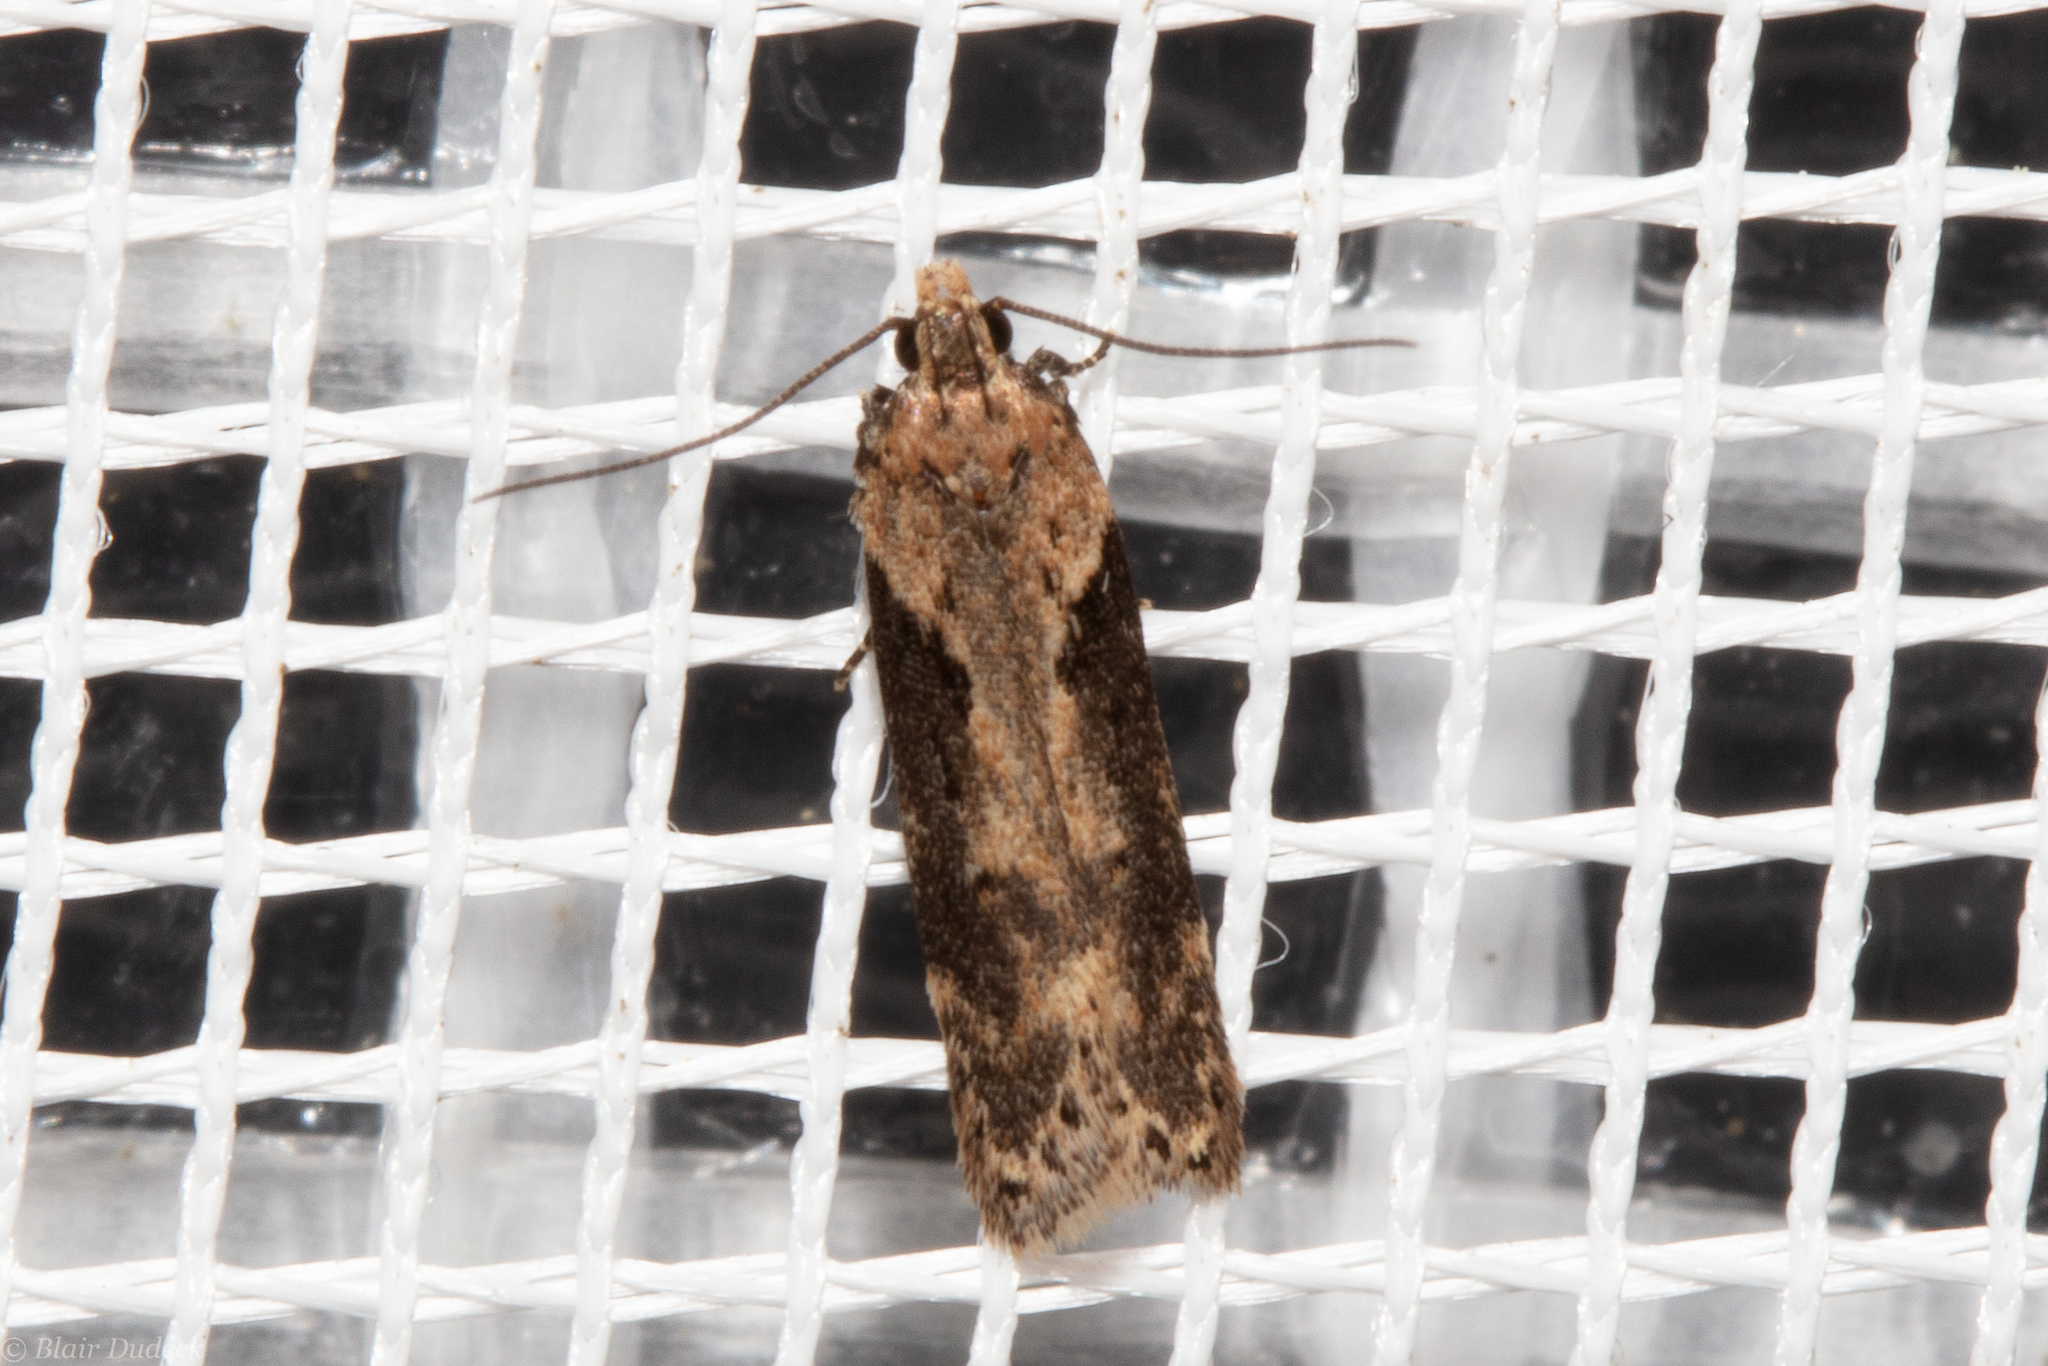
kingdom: Animalia
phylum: Arthropoda
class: Insecta
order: Lepidoptera
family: Gelechiidae
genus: Chionodes
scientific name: Chionodes mediofuscella
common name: Black-smudged chionodes moth
